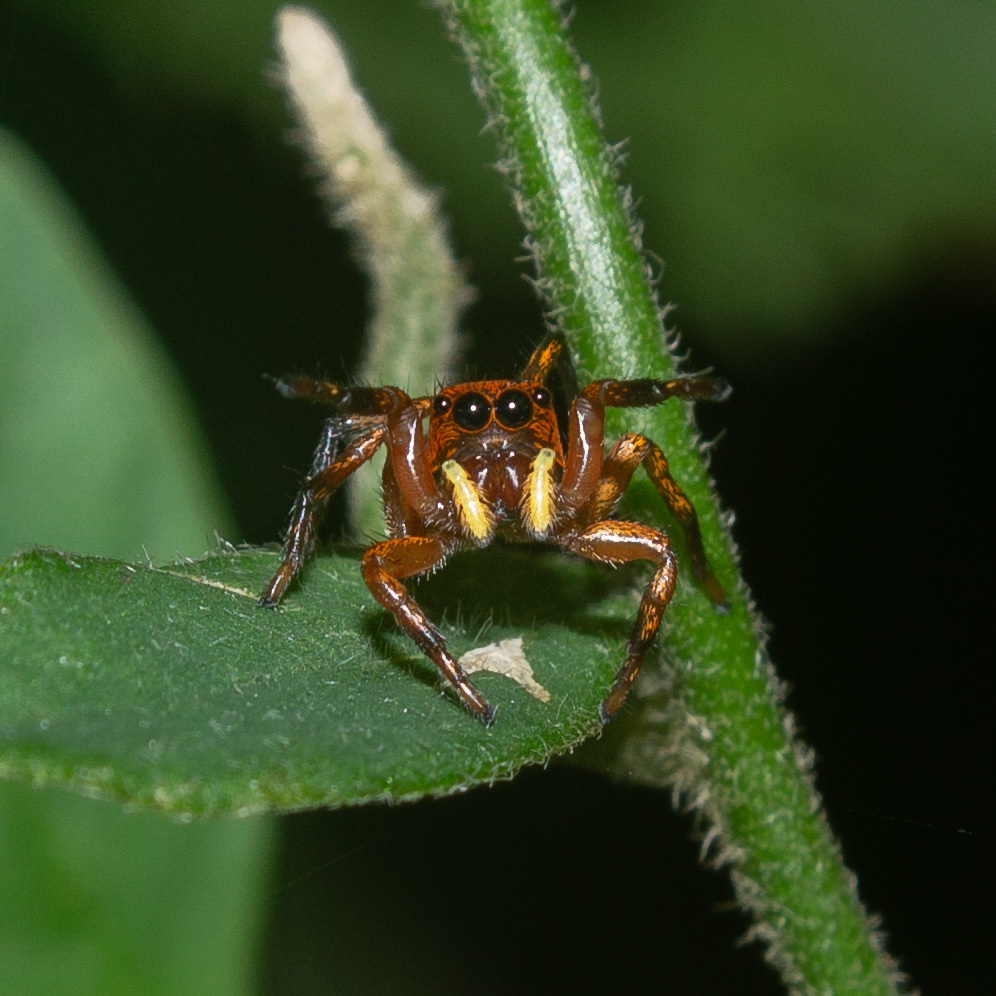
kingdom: Animalia
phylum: Arthropoda
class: Arachnida
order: Araneae
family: Salticidae
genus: Phiale
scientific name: Phiale mimica
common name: Jumping spiders
